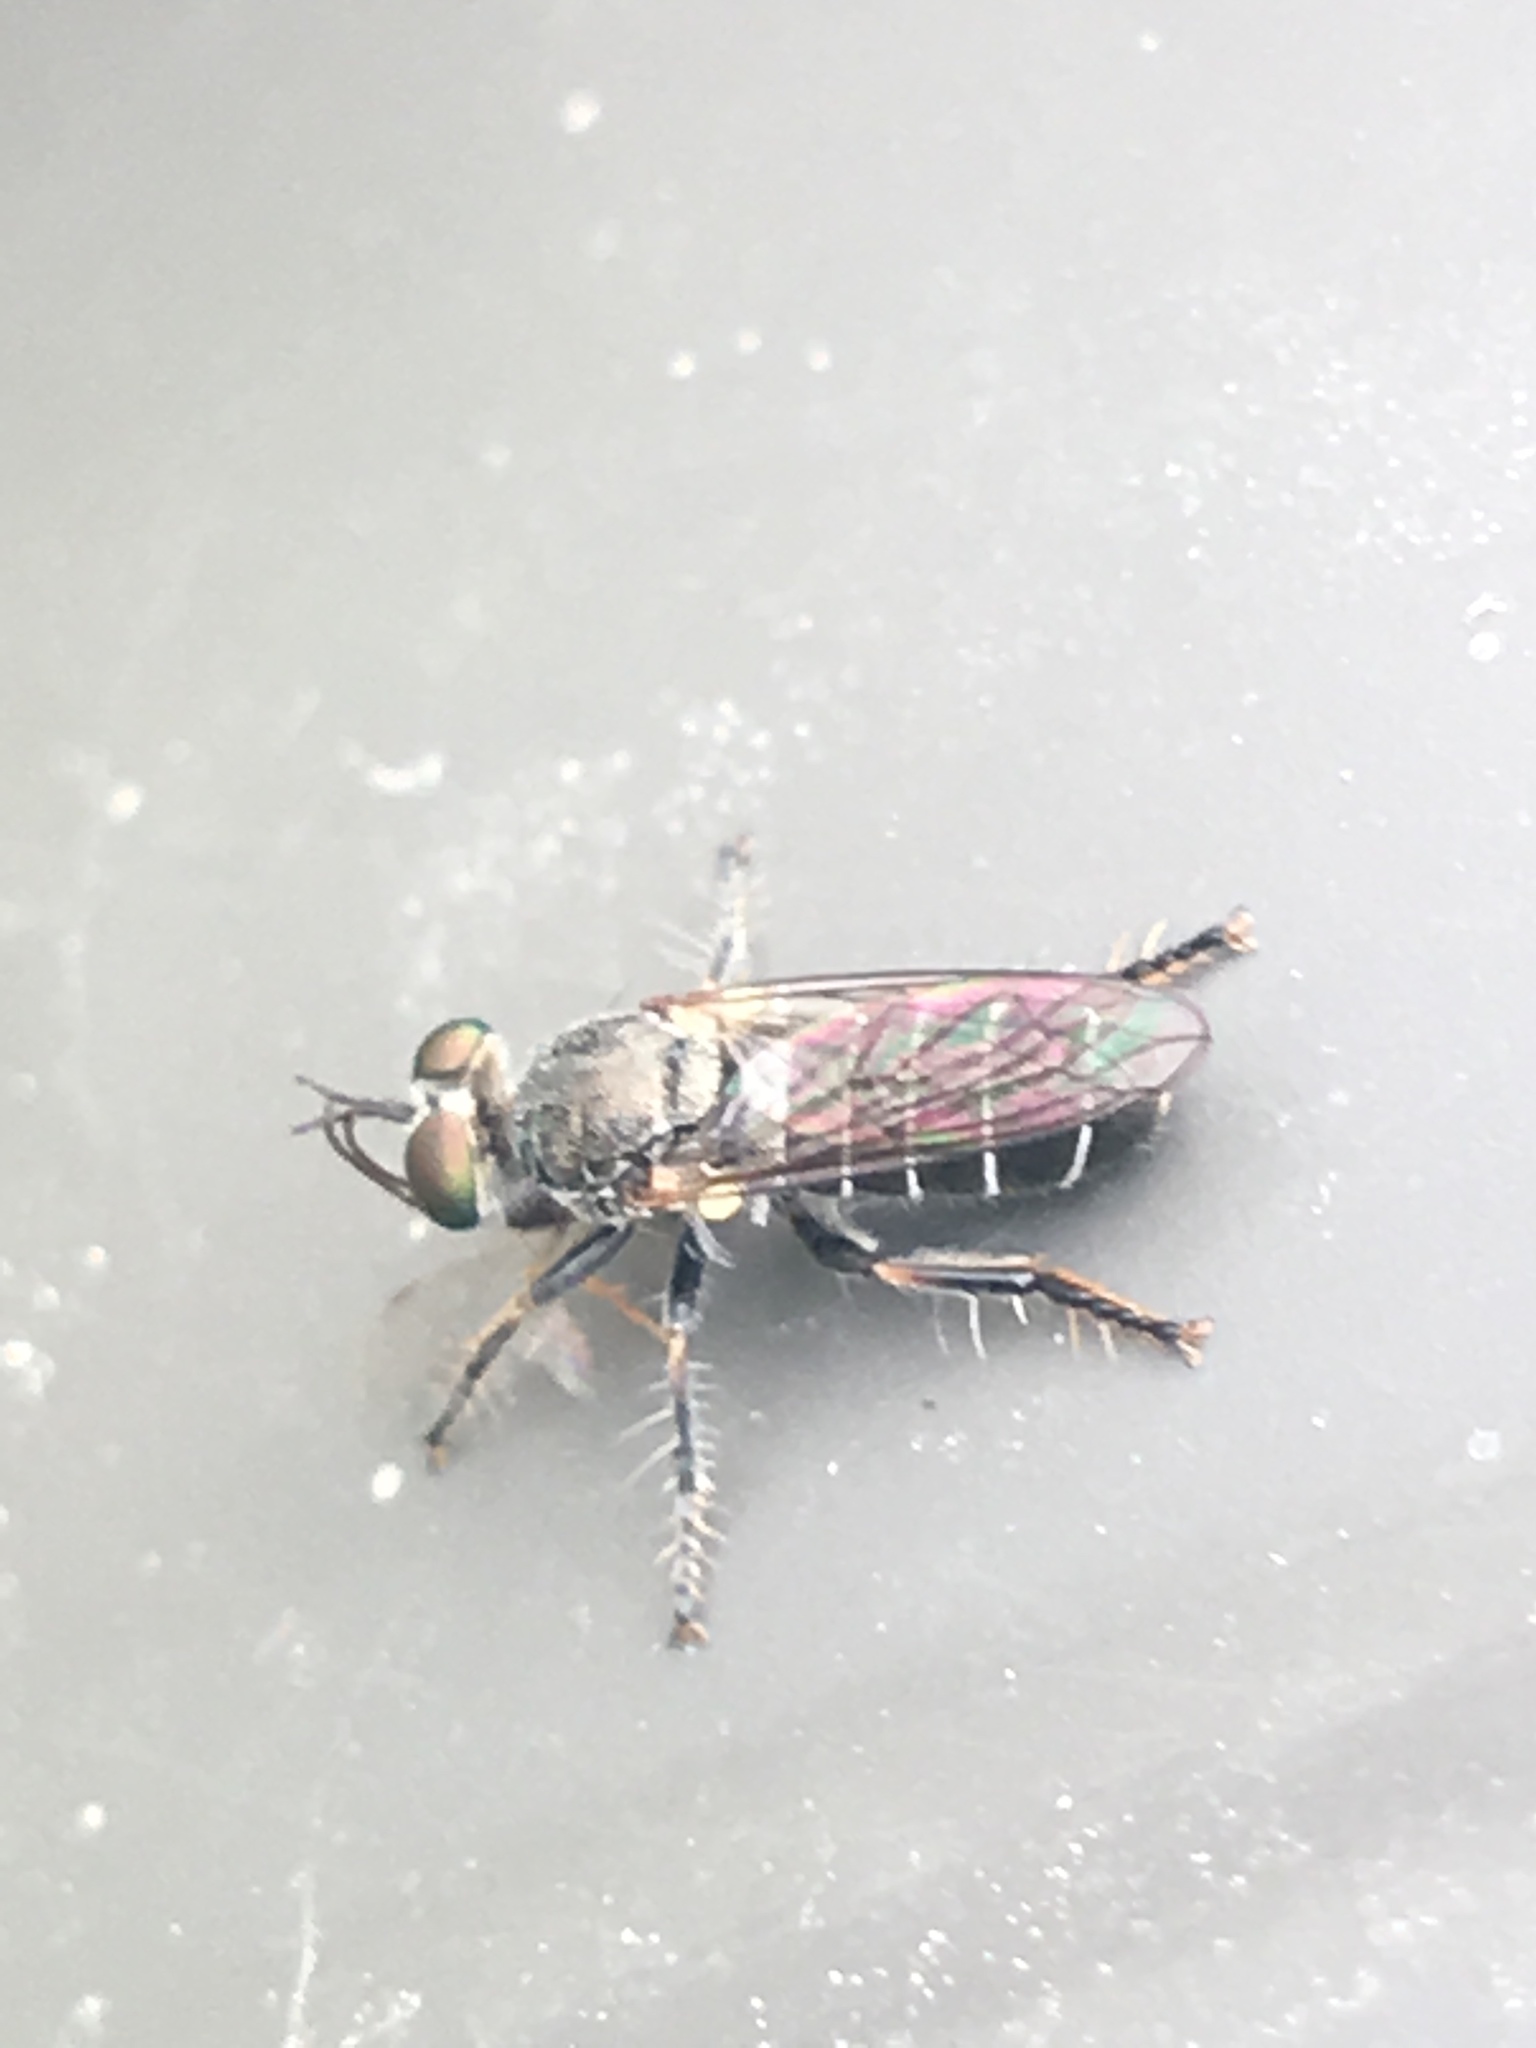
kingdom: Animalia
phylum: Arthropoda
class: Insecta
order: Diptera
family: Asilidae
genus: Atomosia
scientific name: Atomosia puella
